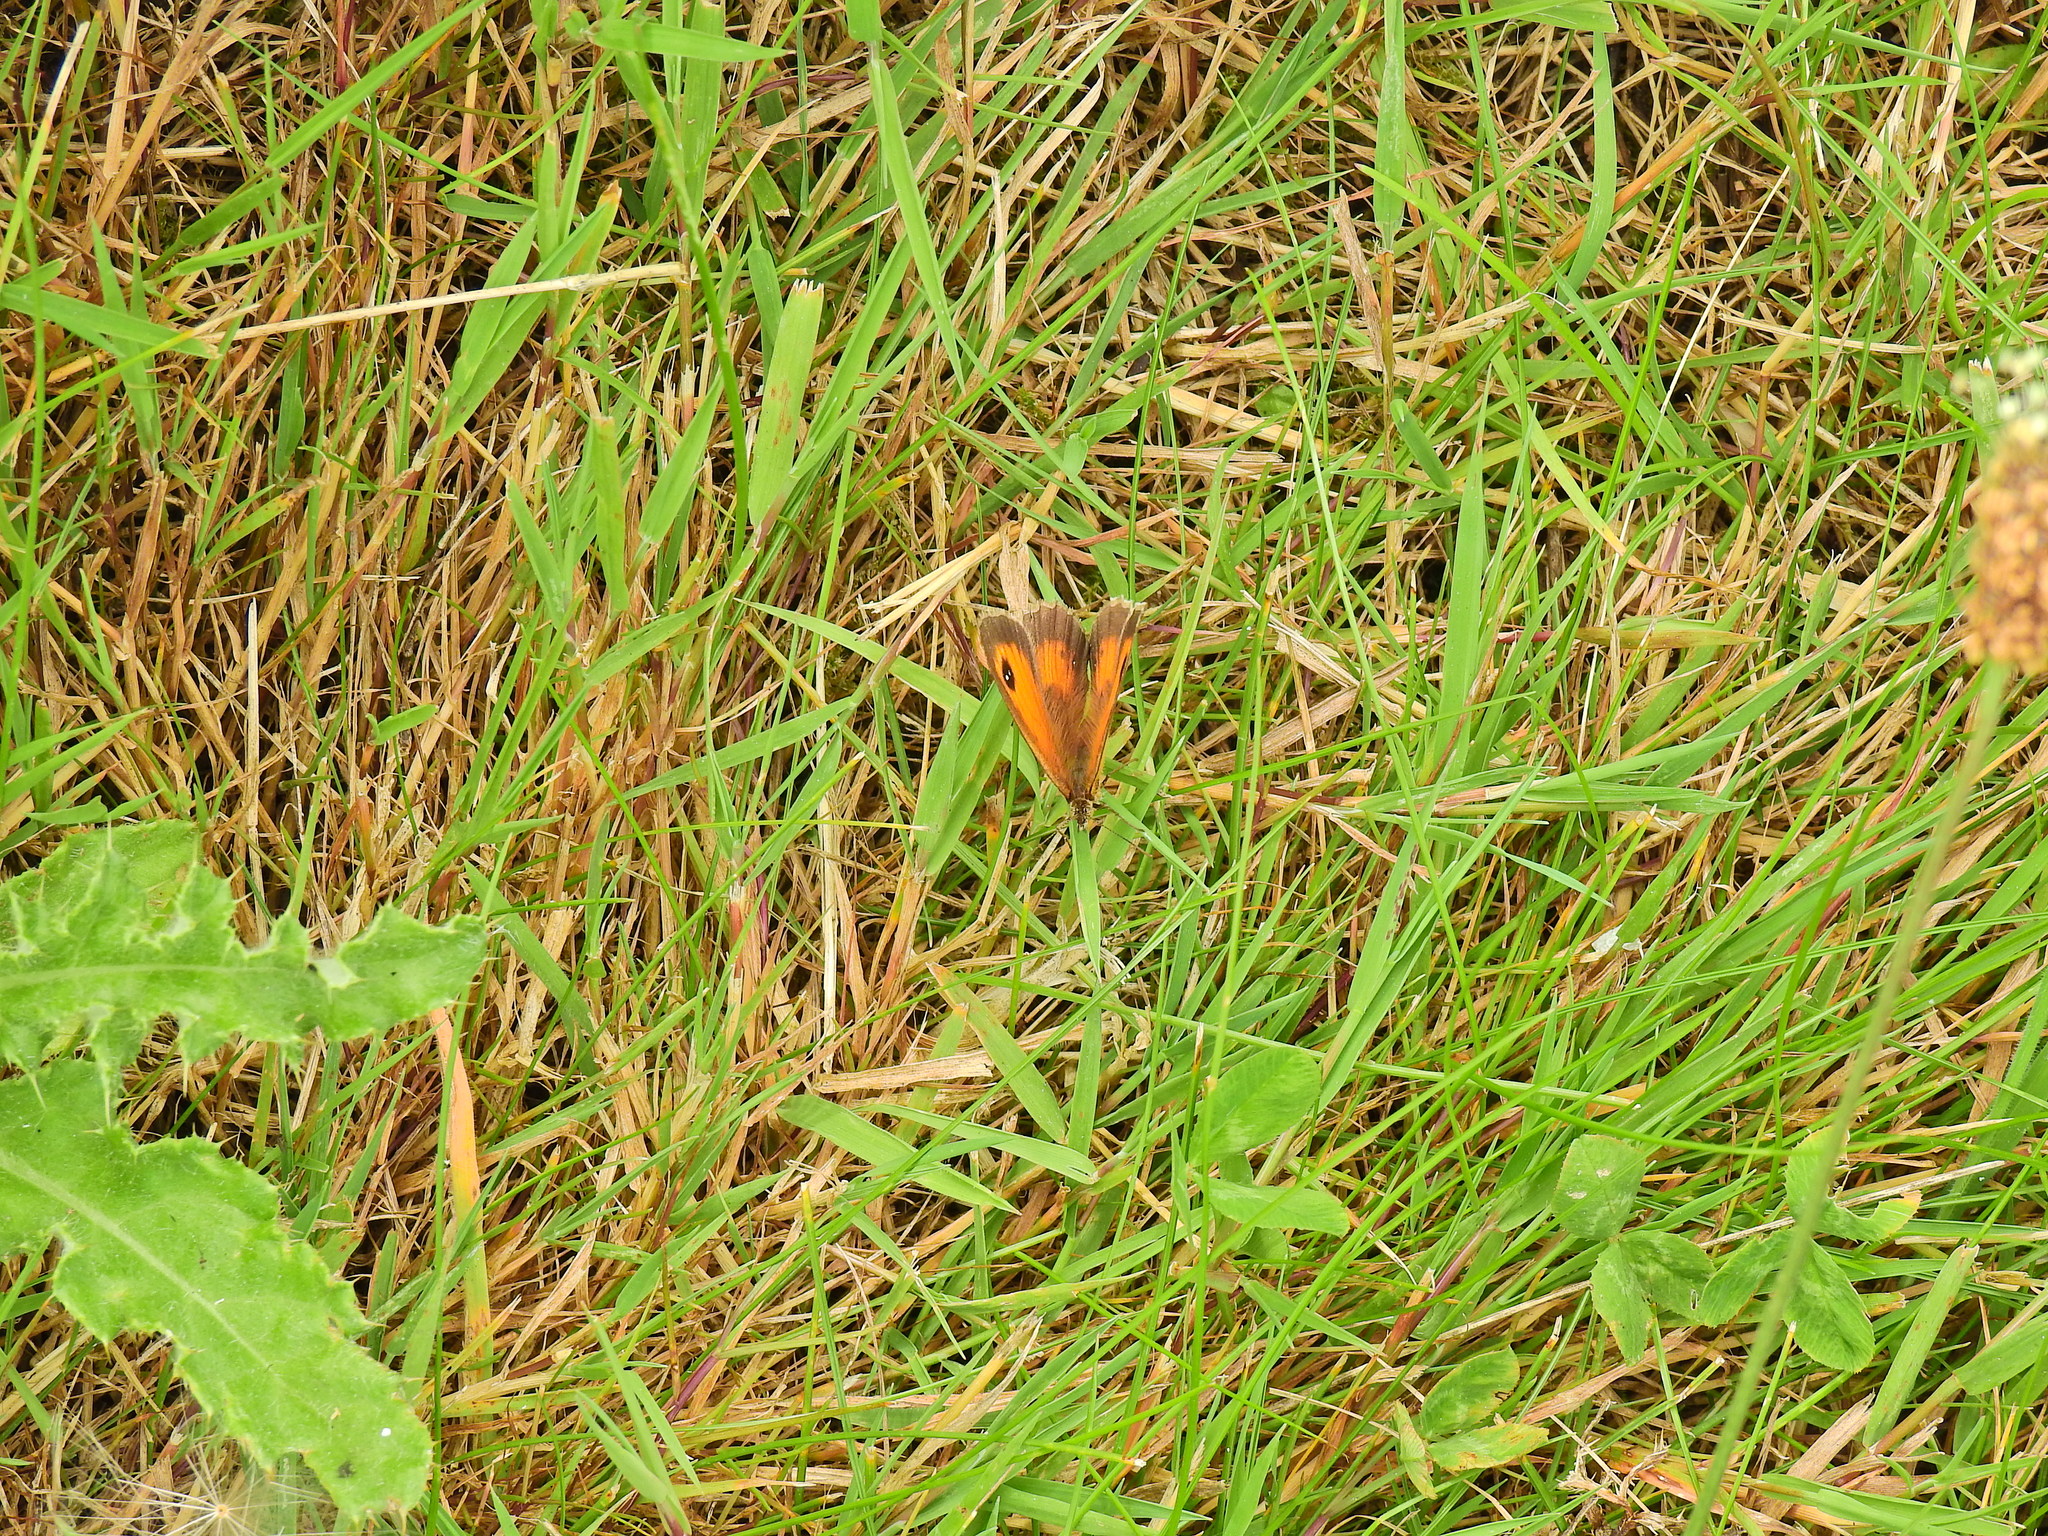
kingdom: Animalia
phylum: Arthropoda
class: Insecta
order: Lepidoptera
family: Nymphalidae
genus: Pyronia
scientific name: Pyronia tithonus
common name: Gatekeeper
